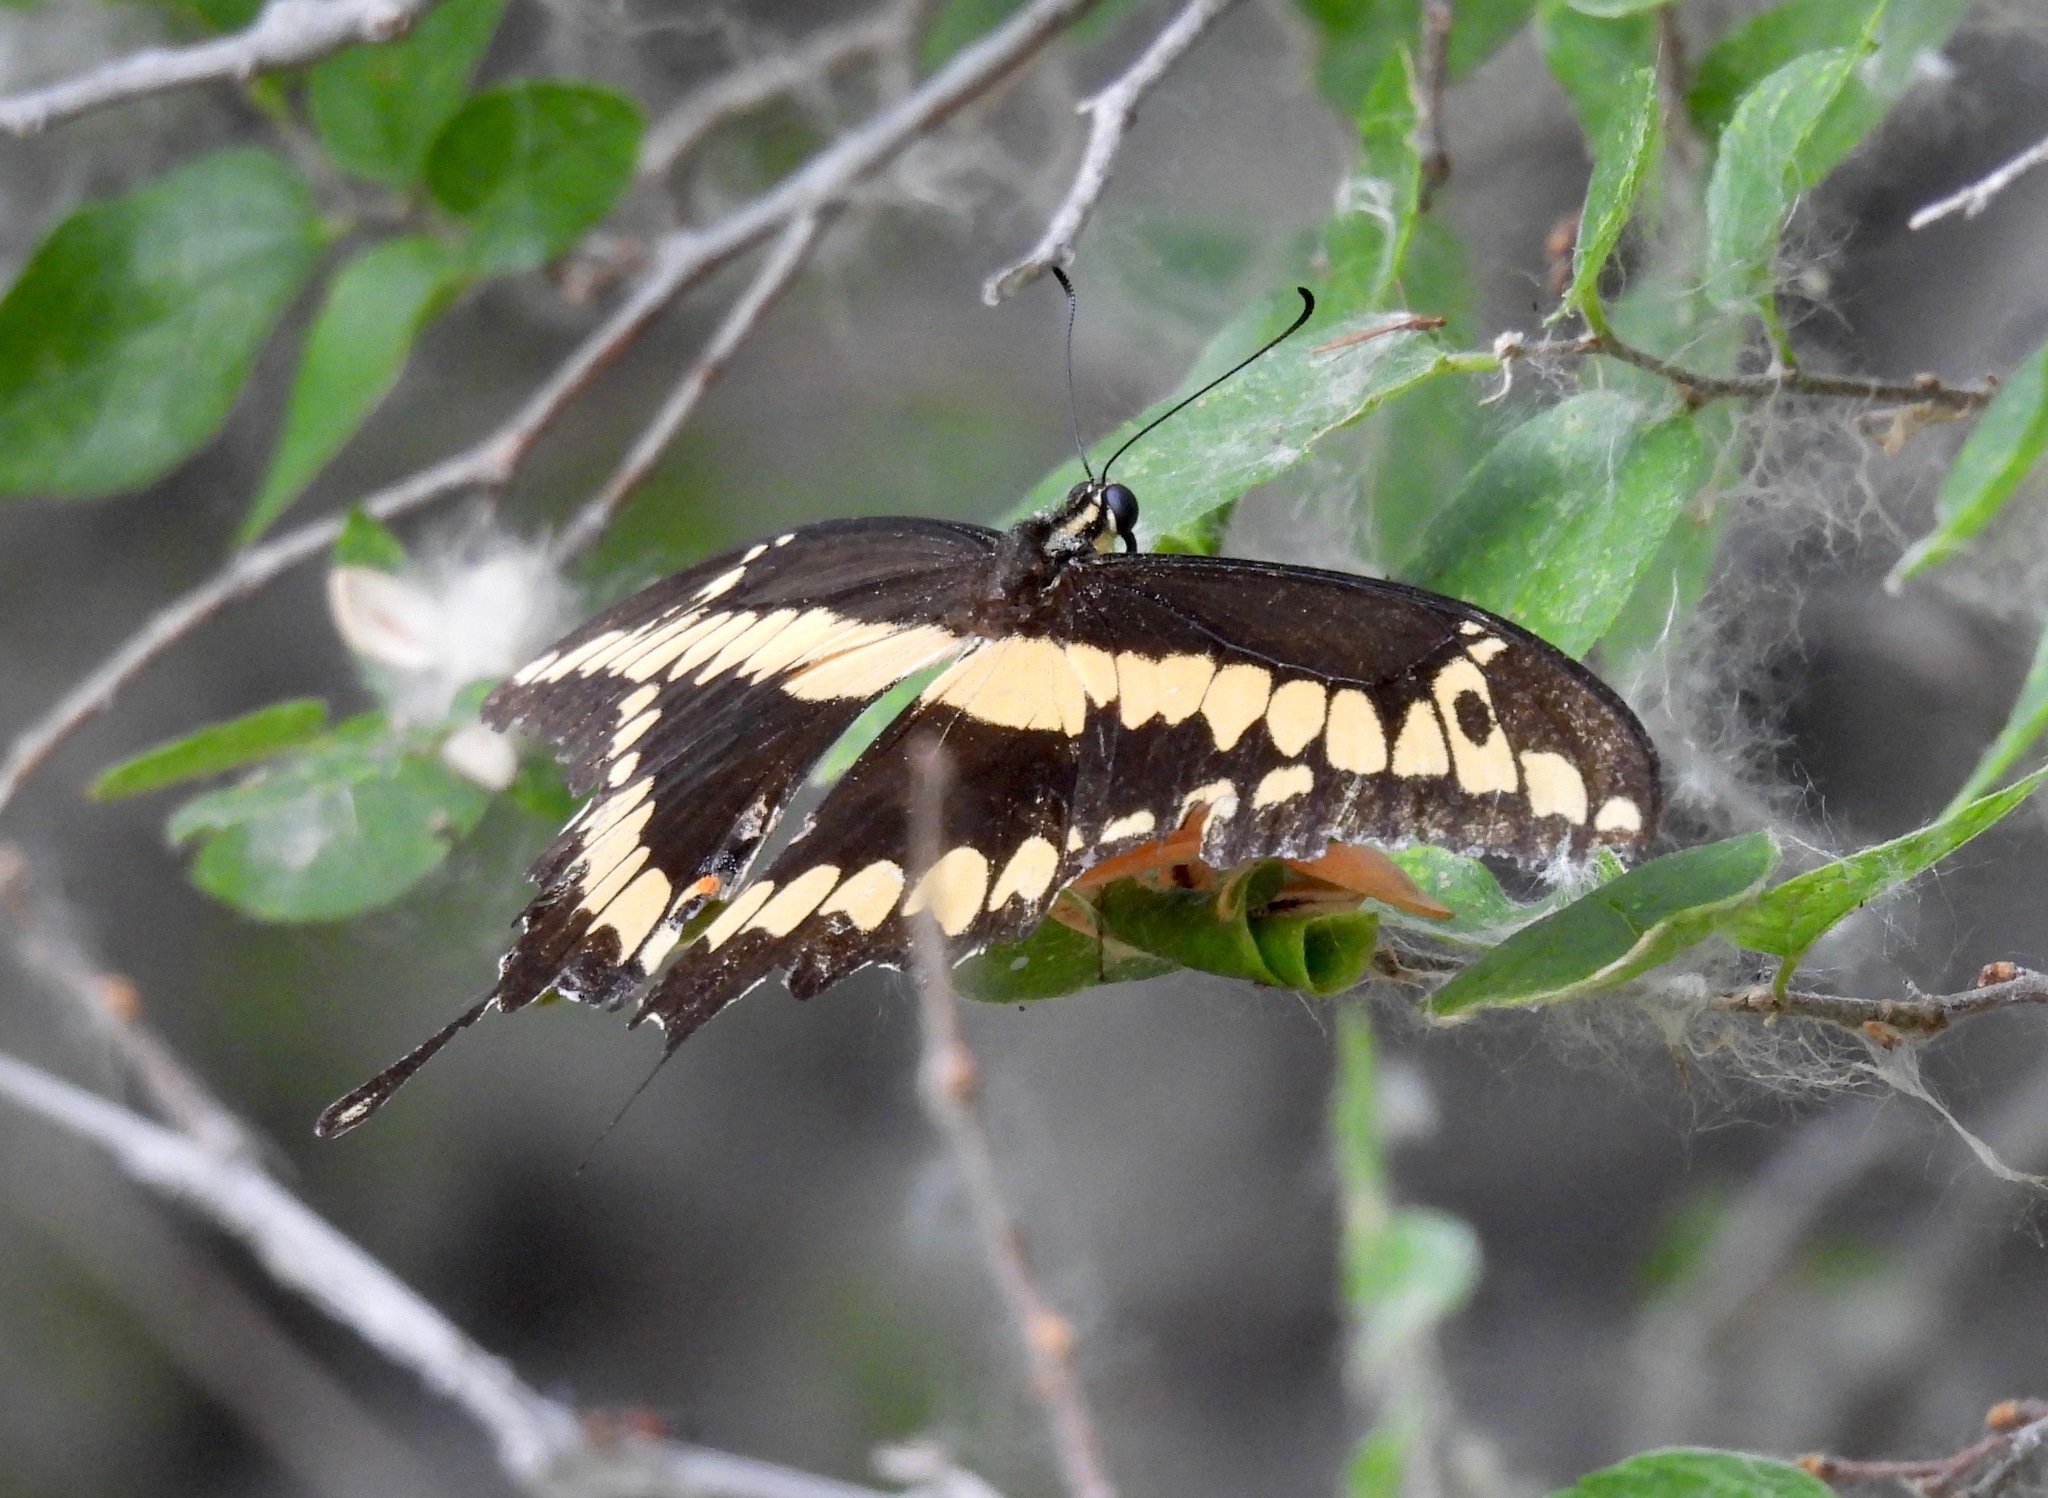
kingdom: Animalia
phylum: Arthropoda
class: Insecta
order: Lepidoptera
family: Papilionidae
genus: Papilio
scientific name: Papilio rumiko
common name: Western giant swallowtail
